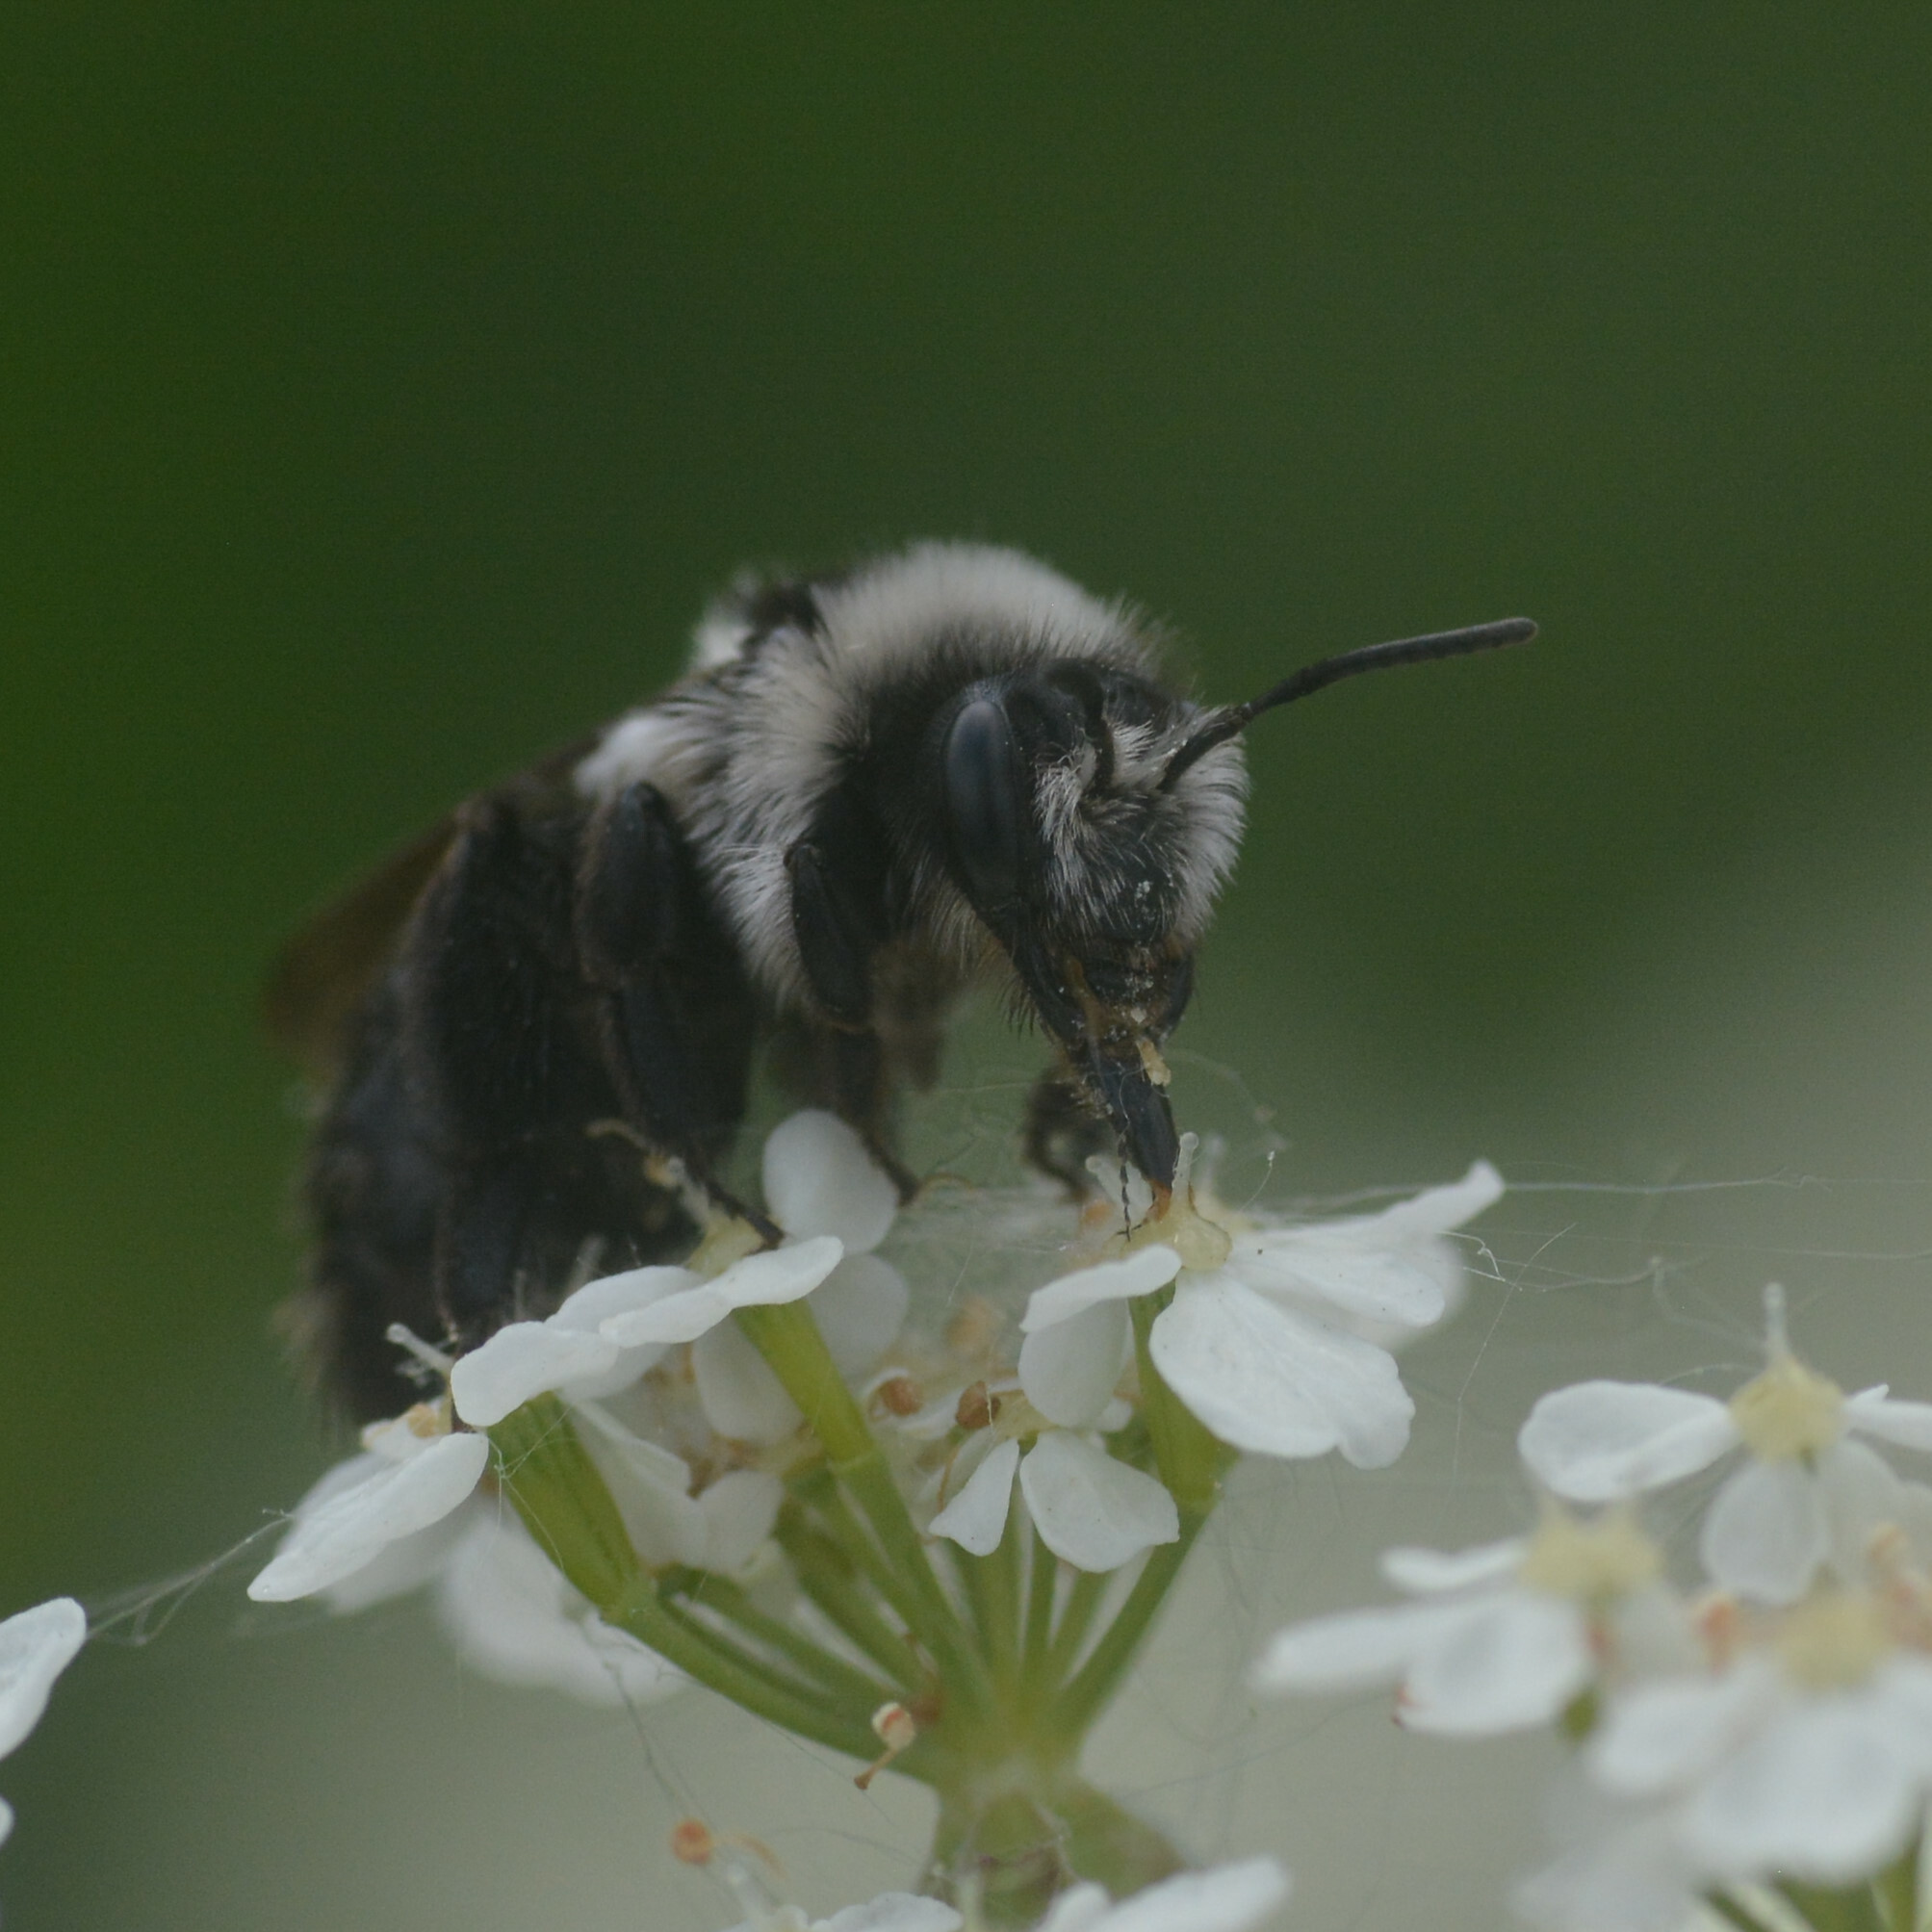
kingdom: Animalia
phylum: Arthropoda
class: Insecta
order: Hymenoptera
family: Andrenidae
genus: Andrena
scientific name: Andrena cineraria
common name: Ashy mining bee
